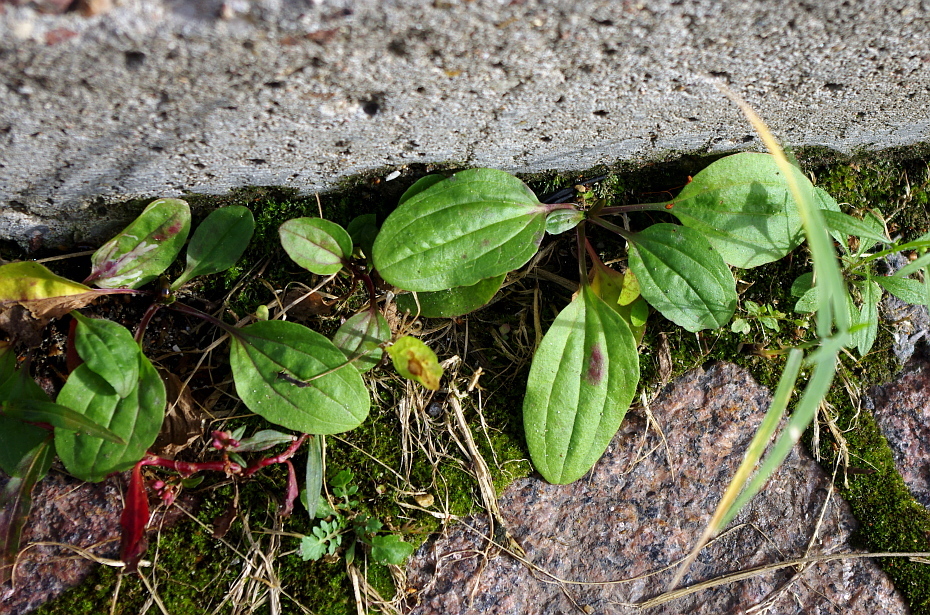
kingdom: Plantae
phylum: Tracheophyta
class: Magnoliopsida
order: Lamiales
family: Plantaginaceae
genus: Plantago
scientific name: Plantago major
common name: Common plantain
